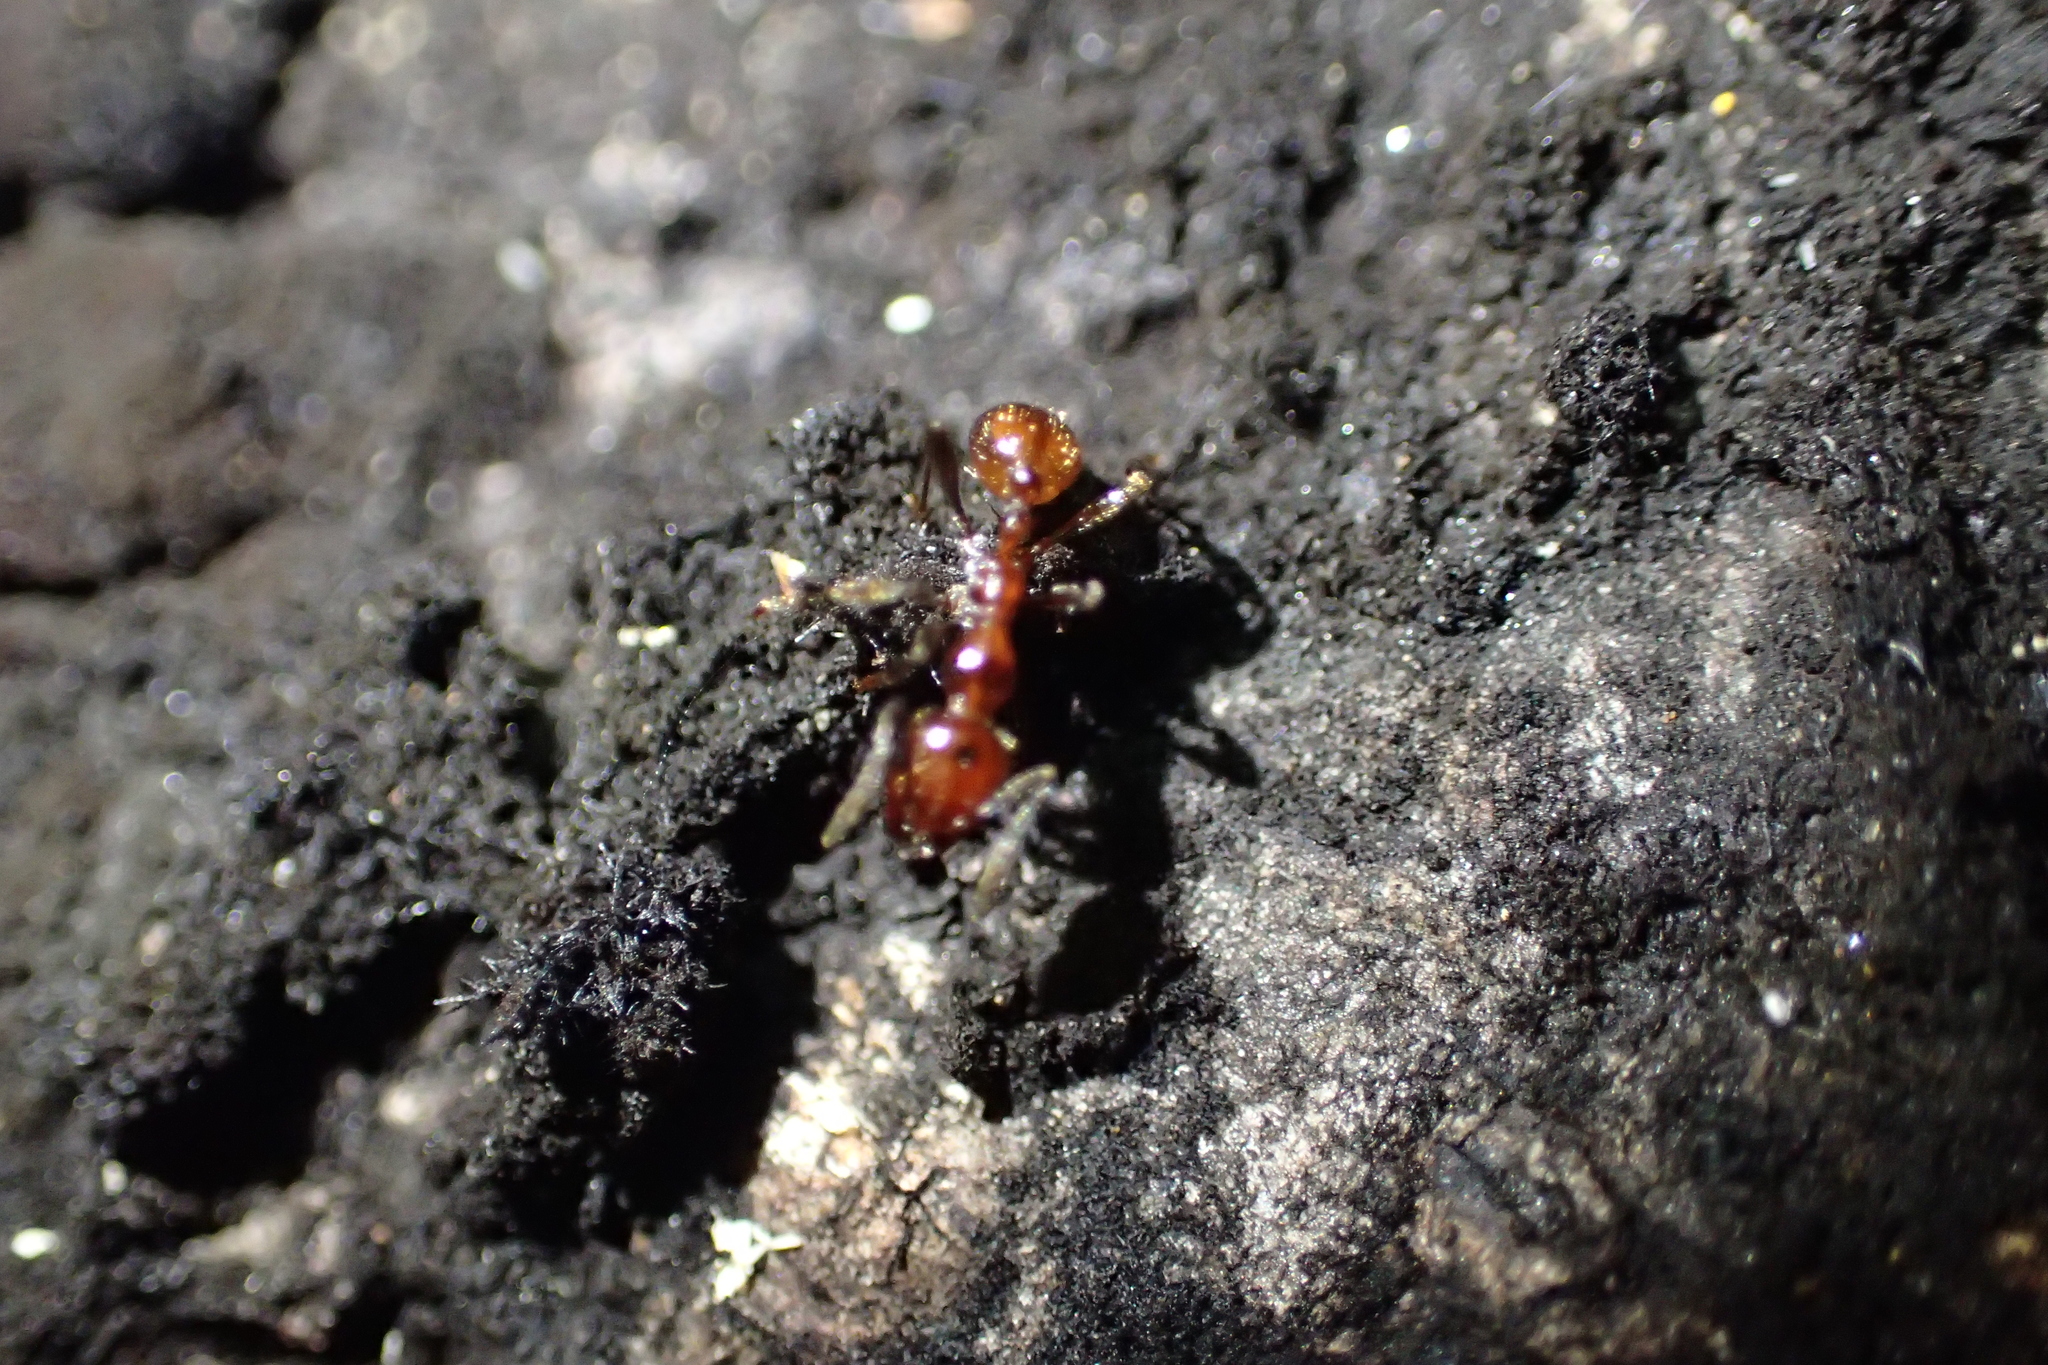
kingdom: Animalia
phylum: Arthropoda
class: Insecta
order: Hymenoptera
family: Formicidae
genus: Huberia
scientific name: Huberia striata
